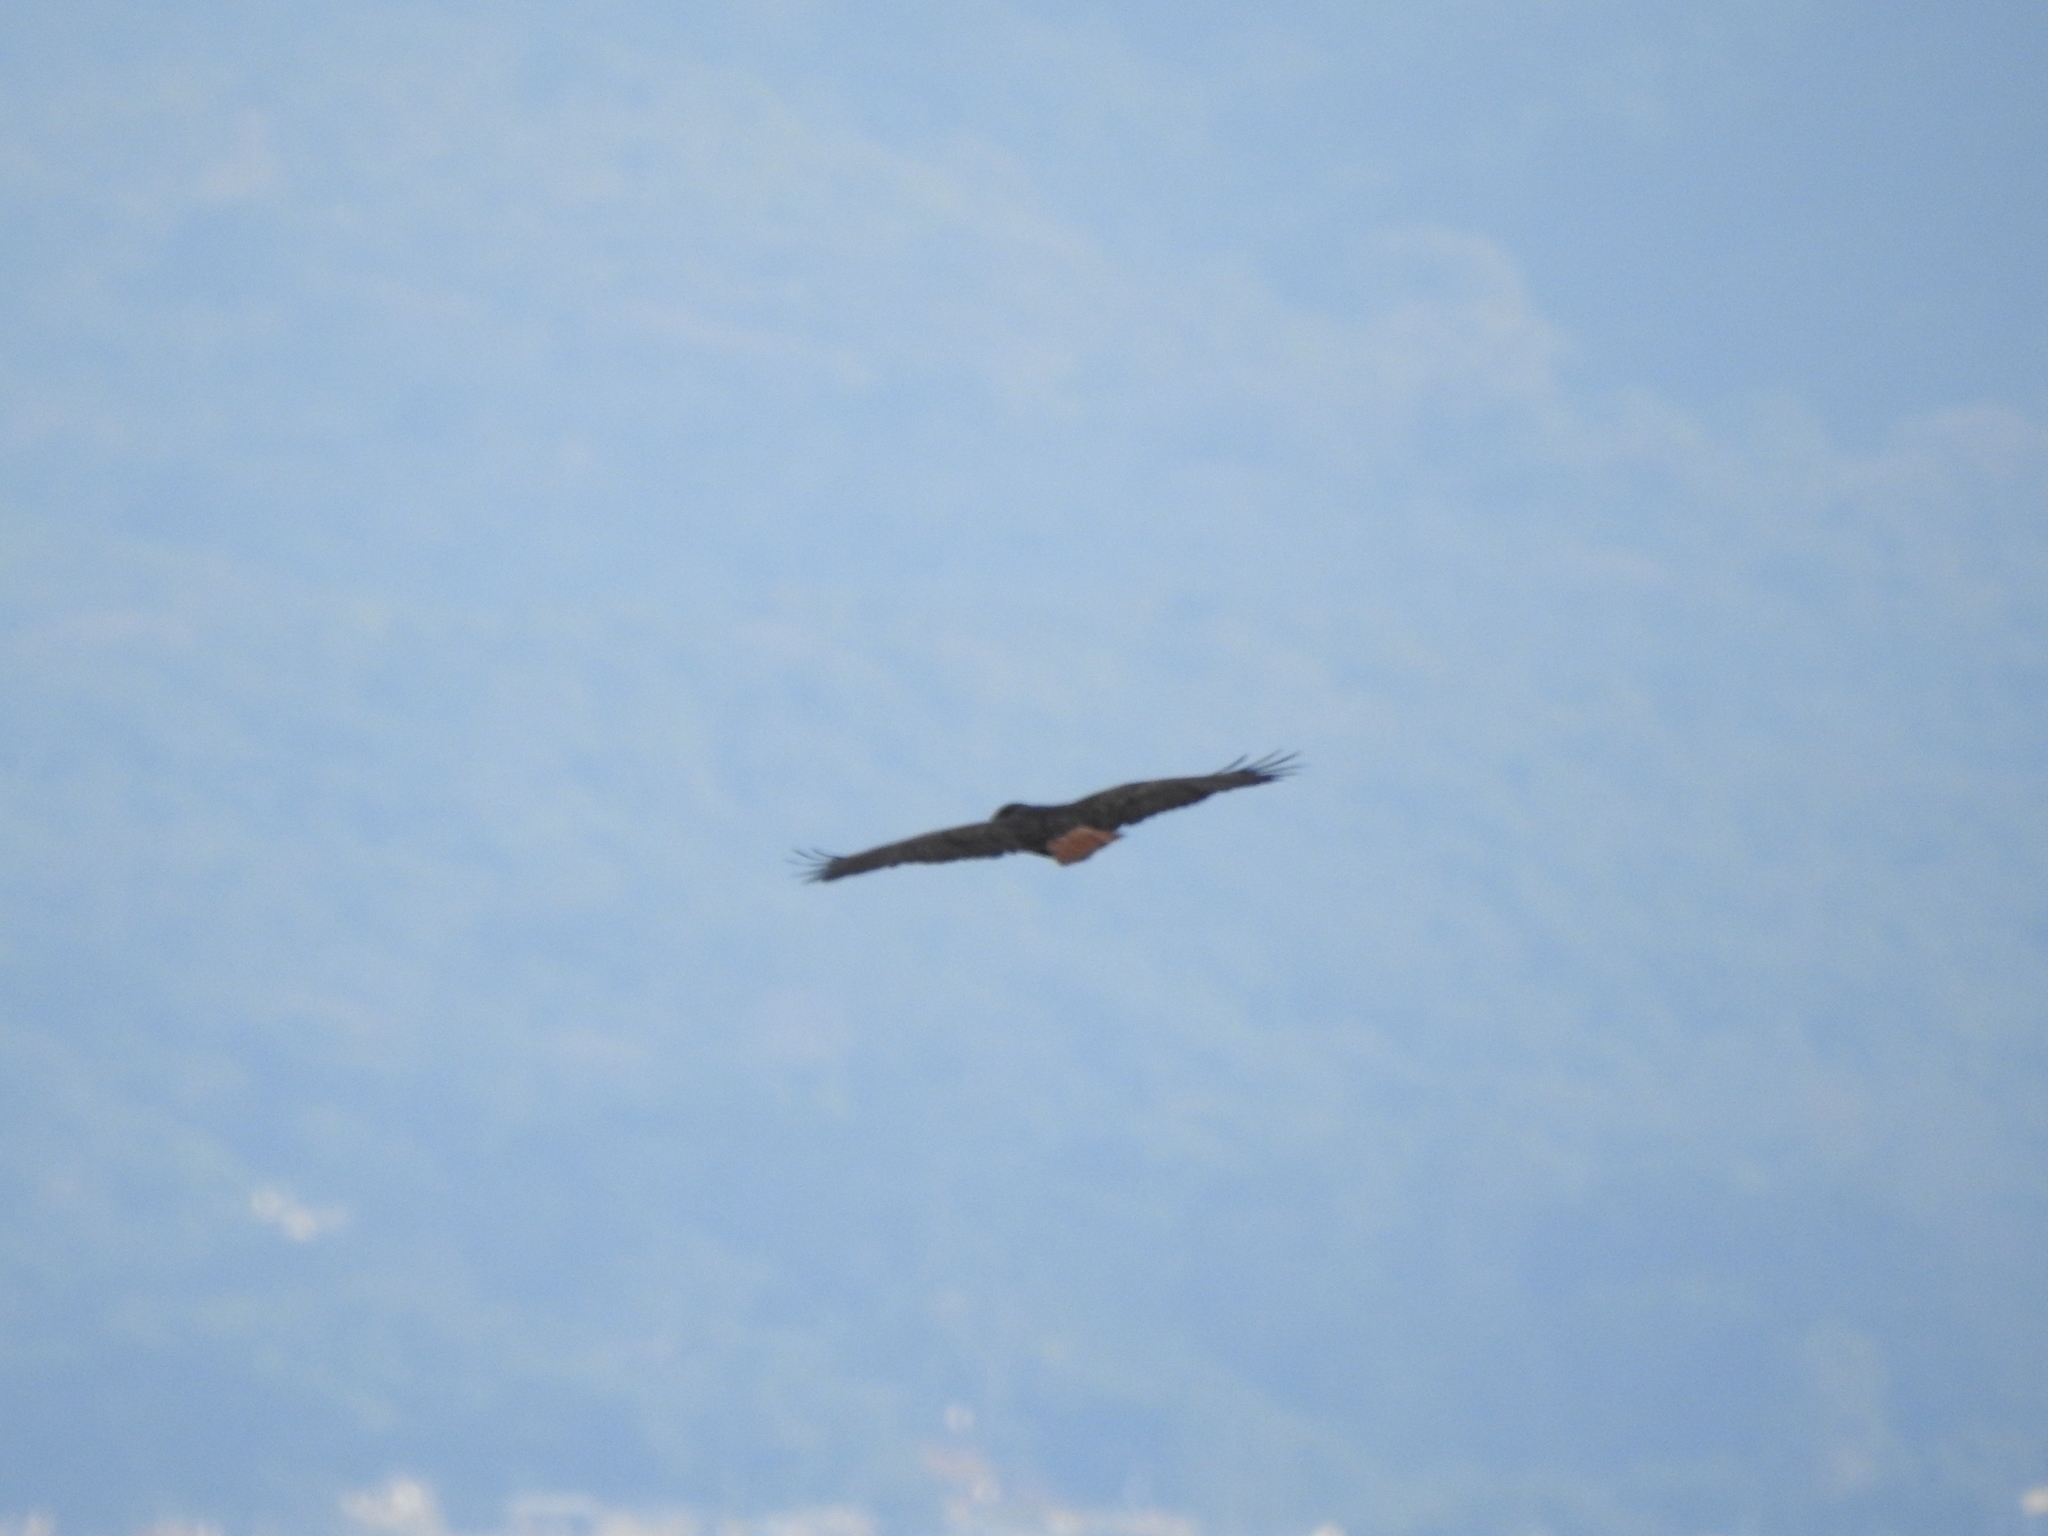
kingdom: Animalia
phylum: Chordata
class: Aves
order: Accipitriformes
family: Accipitridae
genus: Buteo
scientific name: Buteo jamaicensis
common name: Red-tailed hawk
